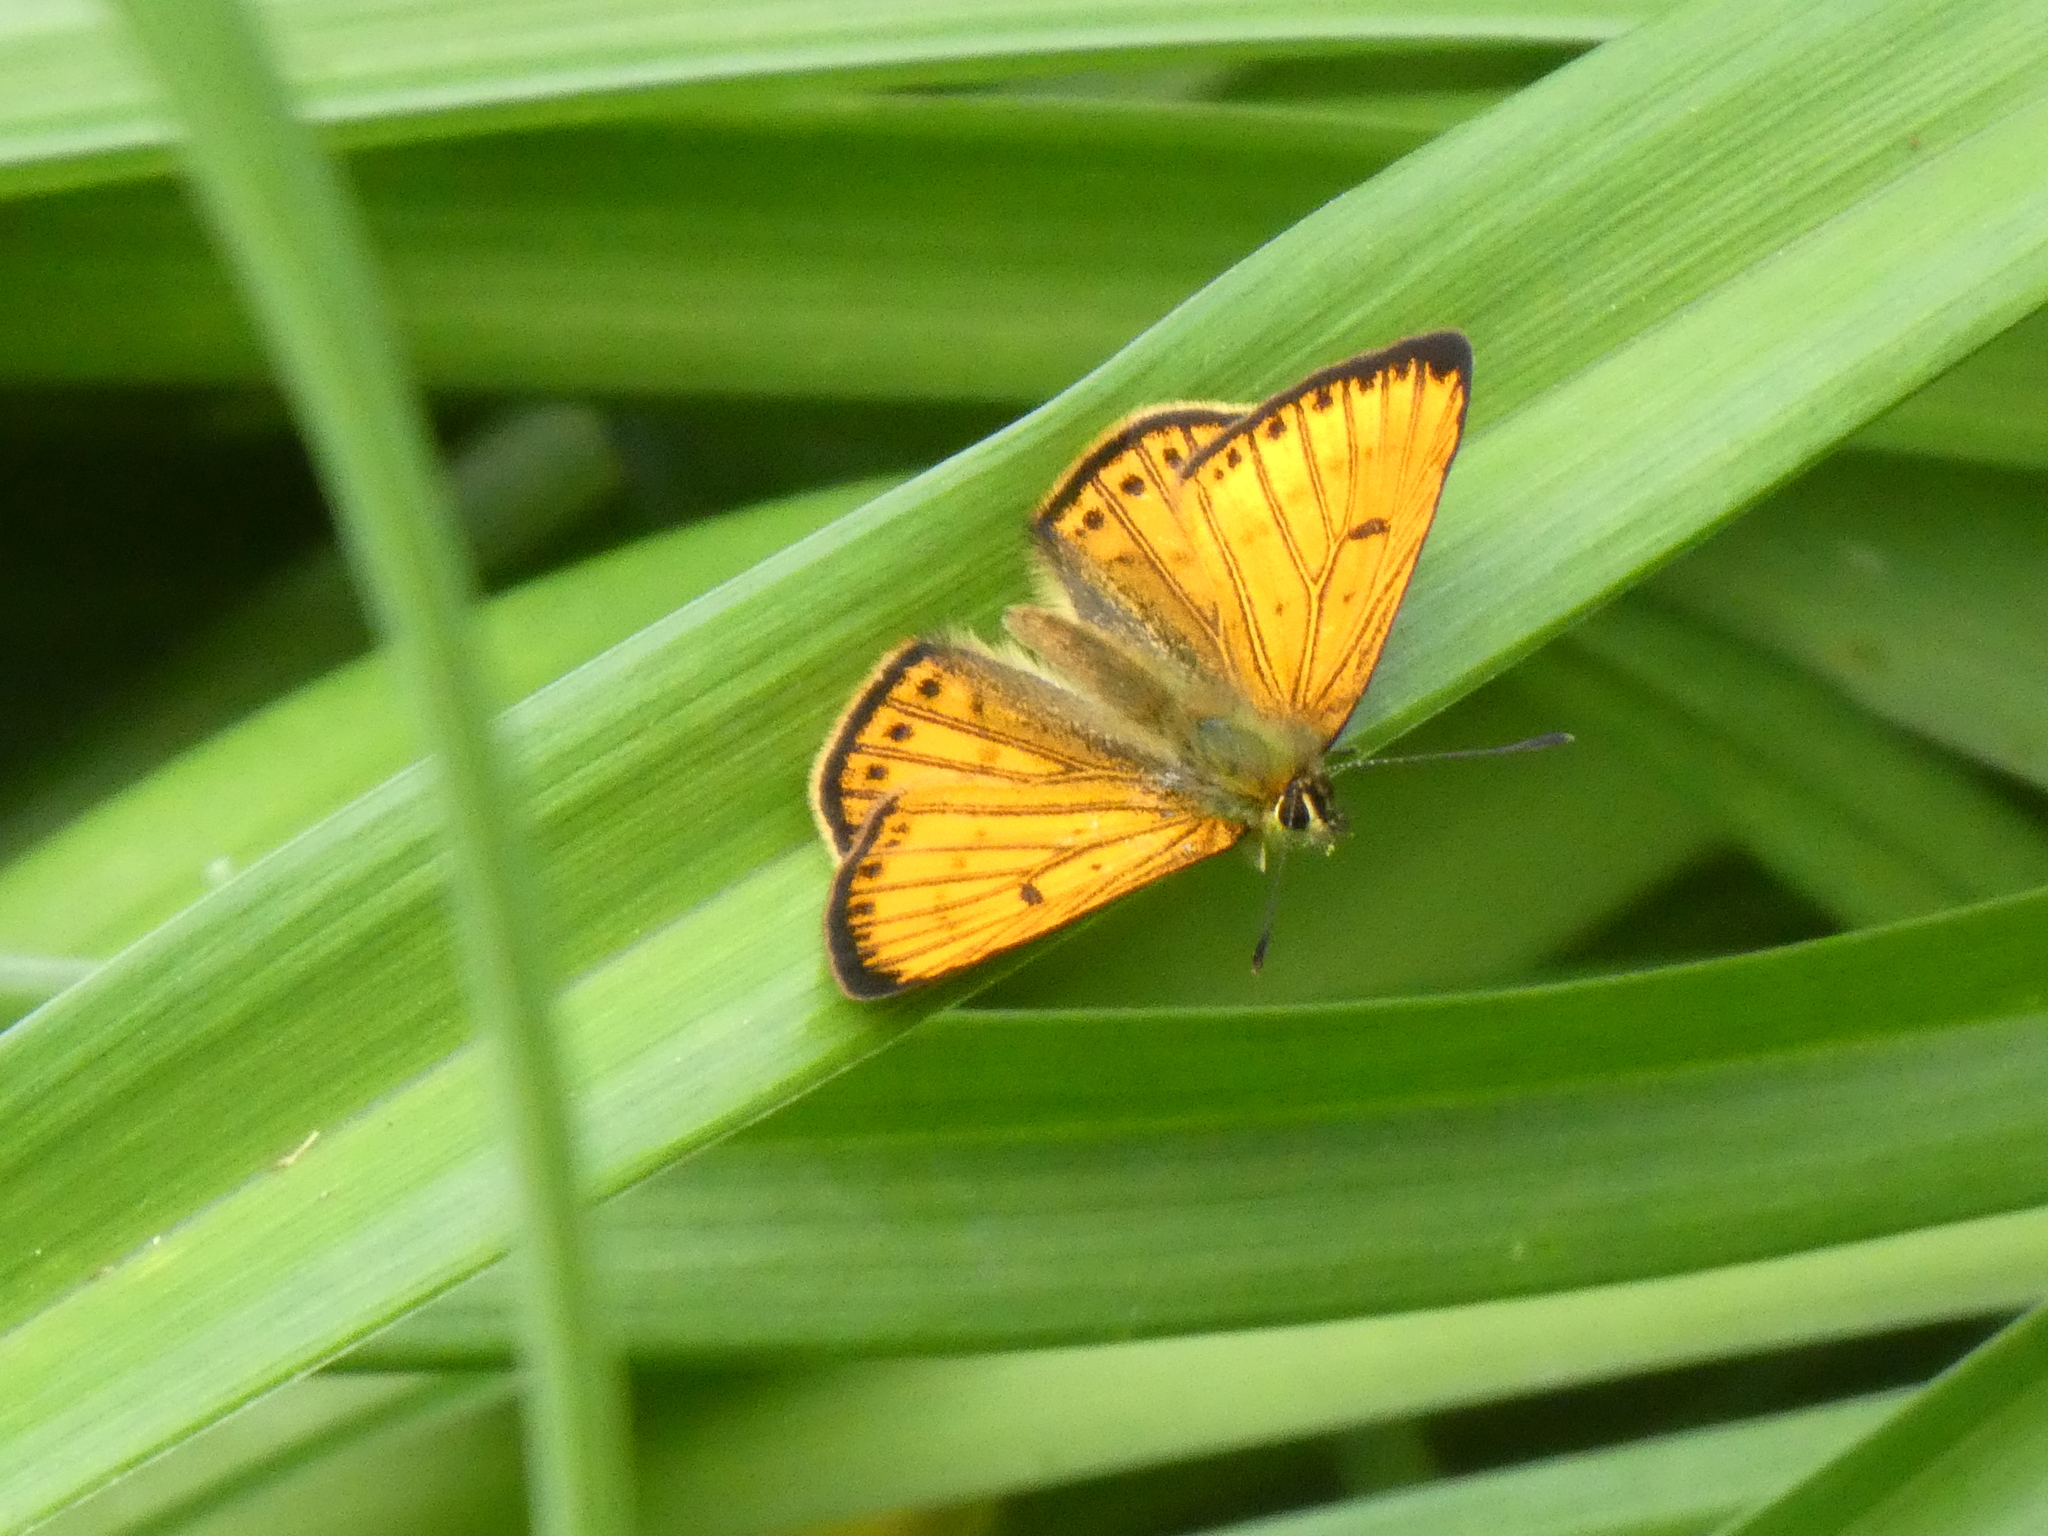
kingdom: Animalia
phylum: Arthropoda
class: Insecta
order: Lepidoptera
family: Lycaenidae
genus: Lycaena
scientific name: Lycaena salustius
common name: North island coastal copper
